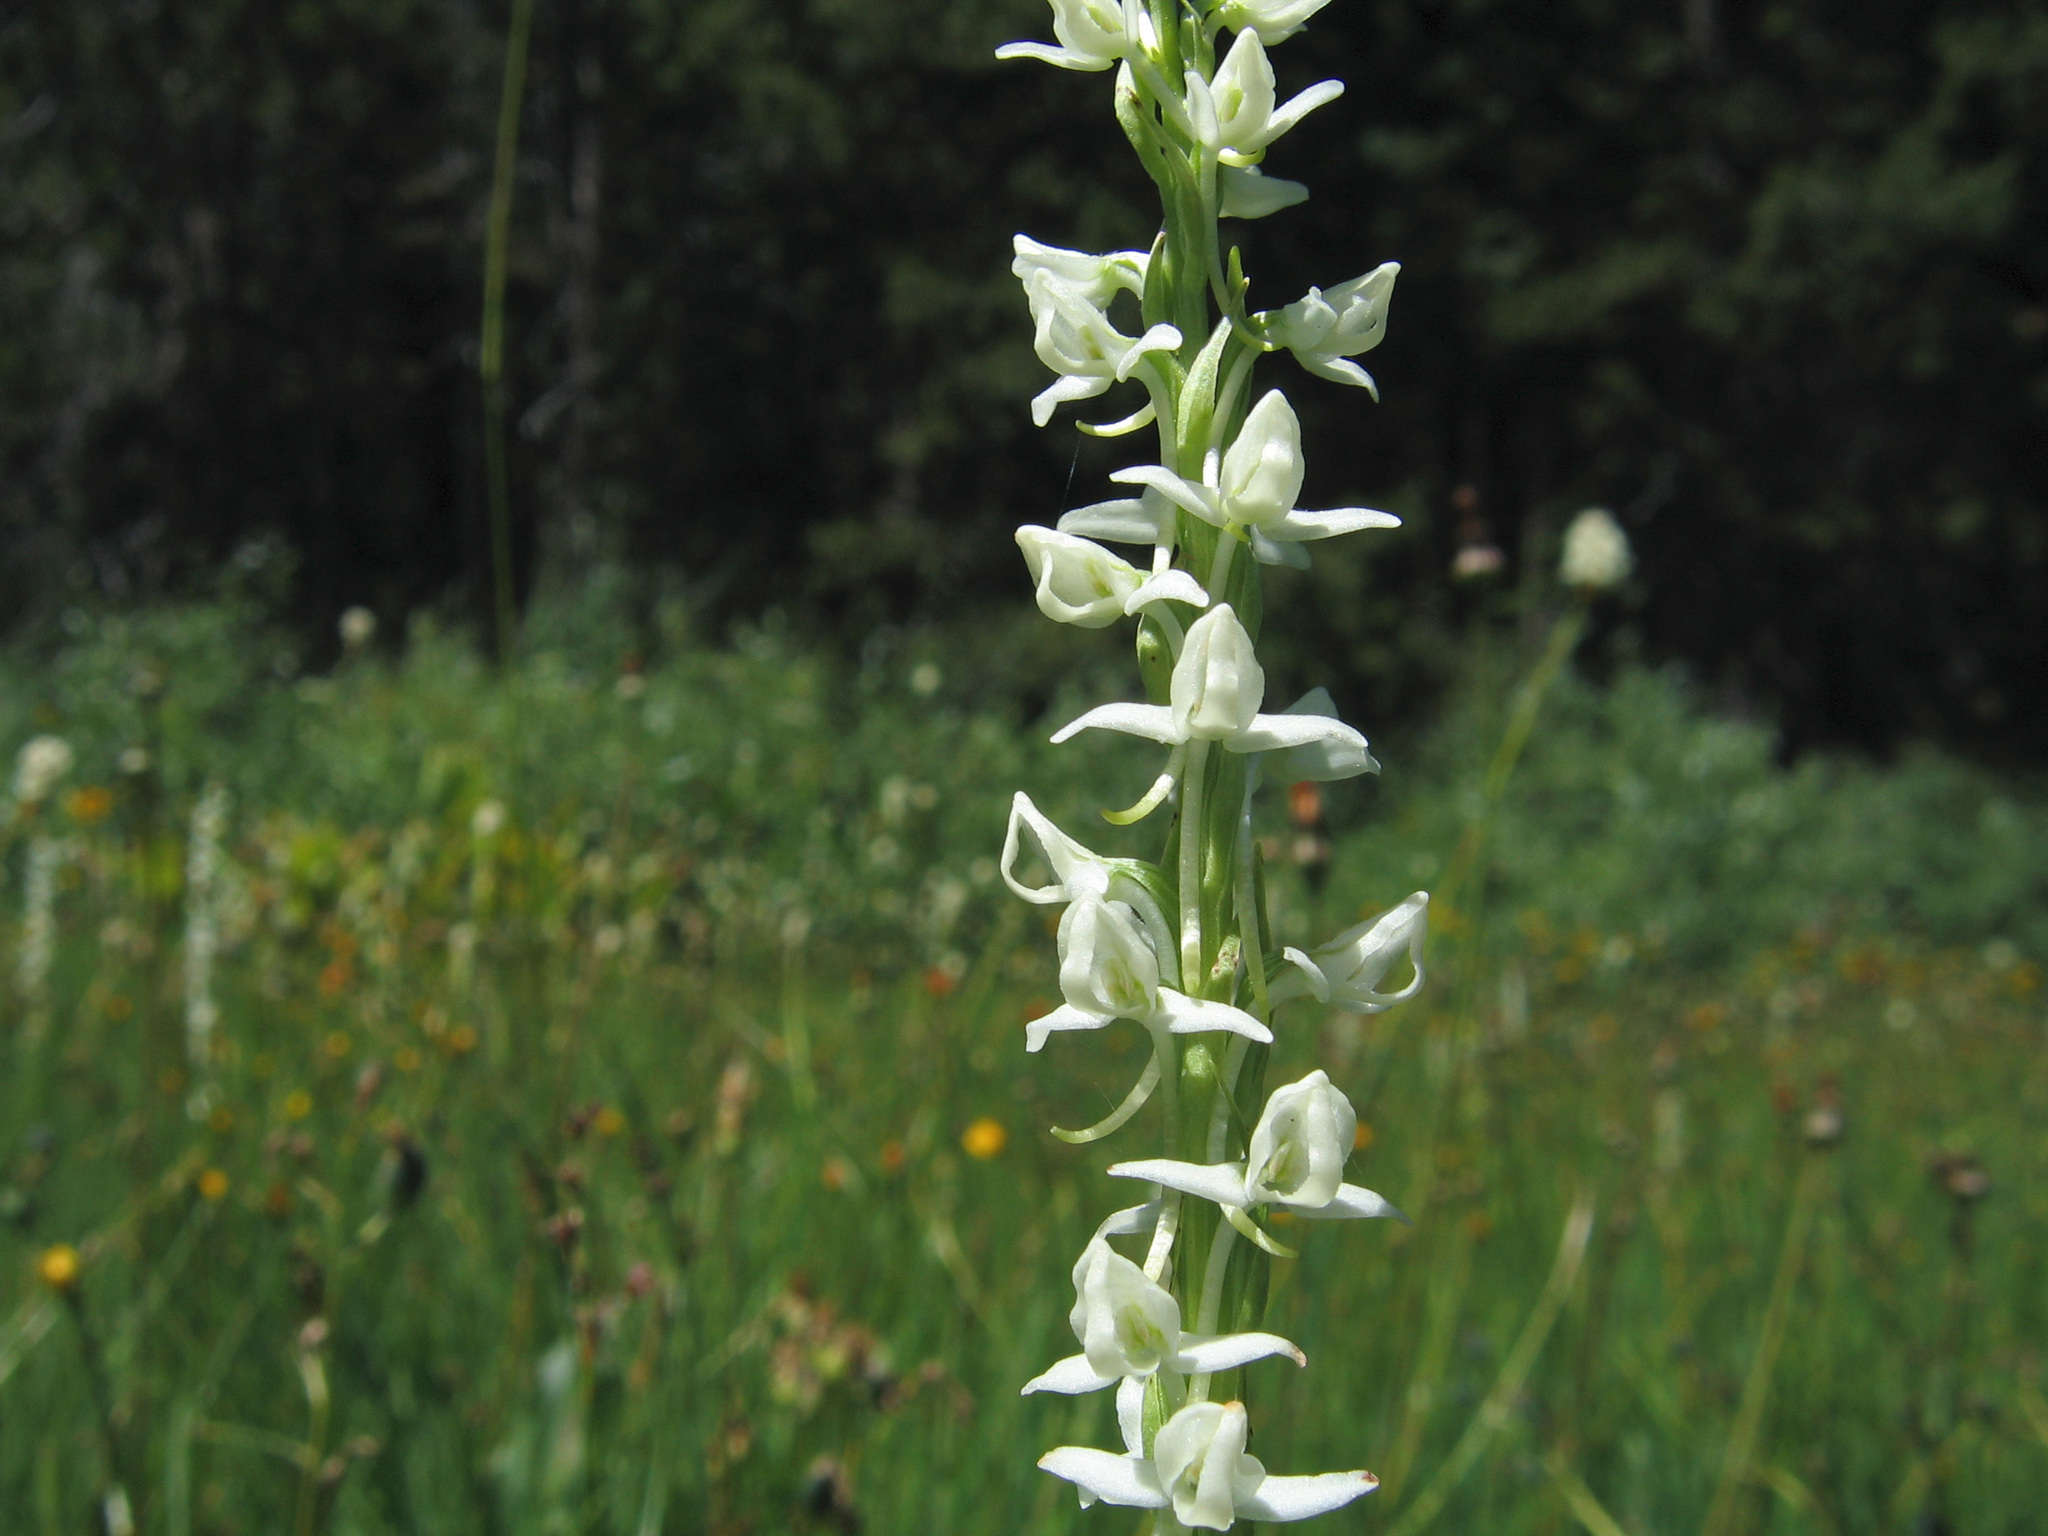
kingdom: Plantae
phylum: Tracheophyta
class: Liliopsida
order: Asparagales
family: Orchidaceae
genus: Platanthera
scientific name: Platanthera dilatata
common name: Bog candles
